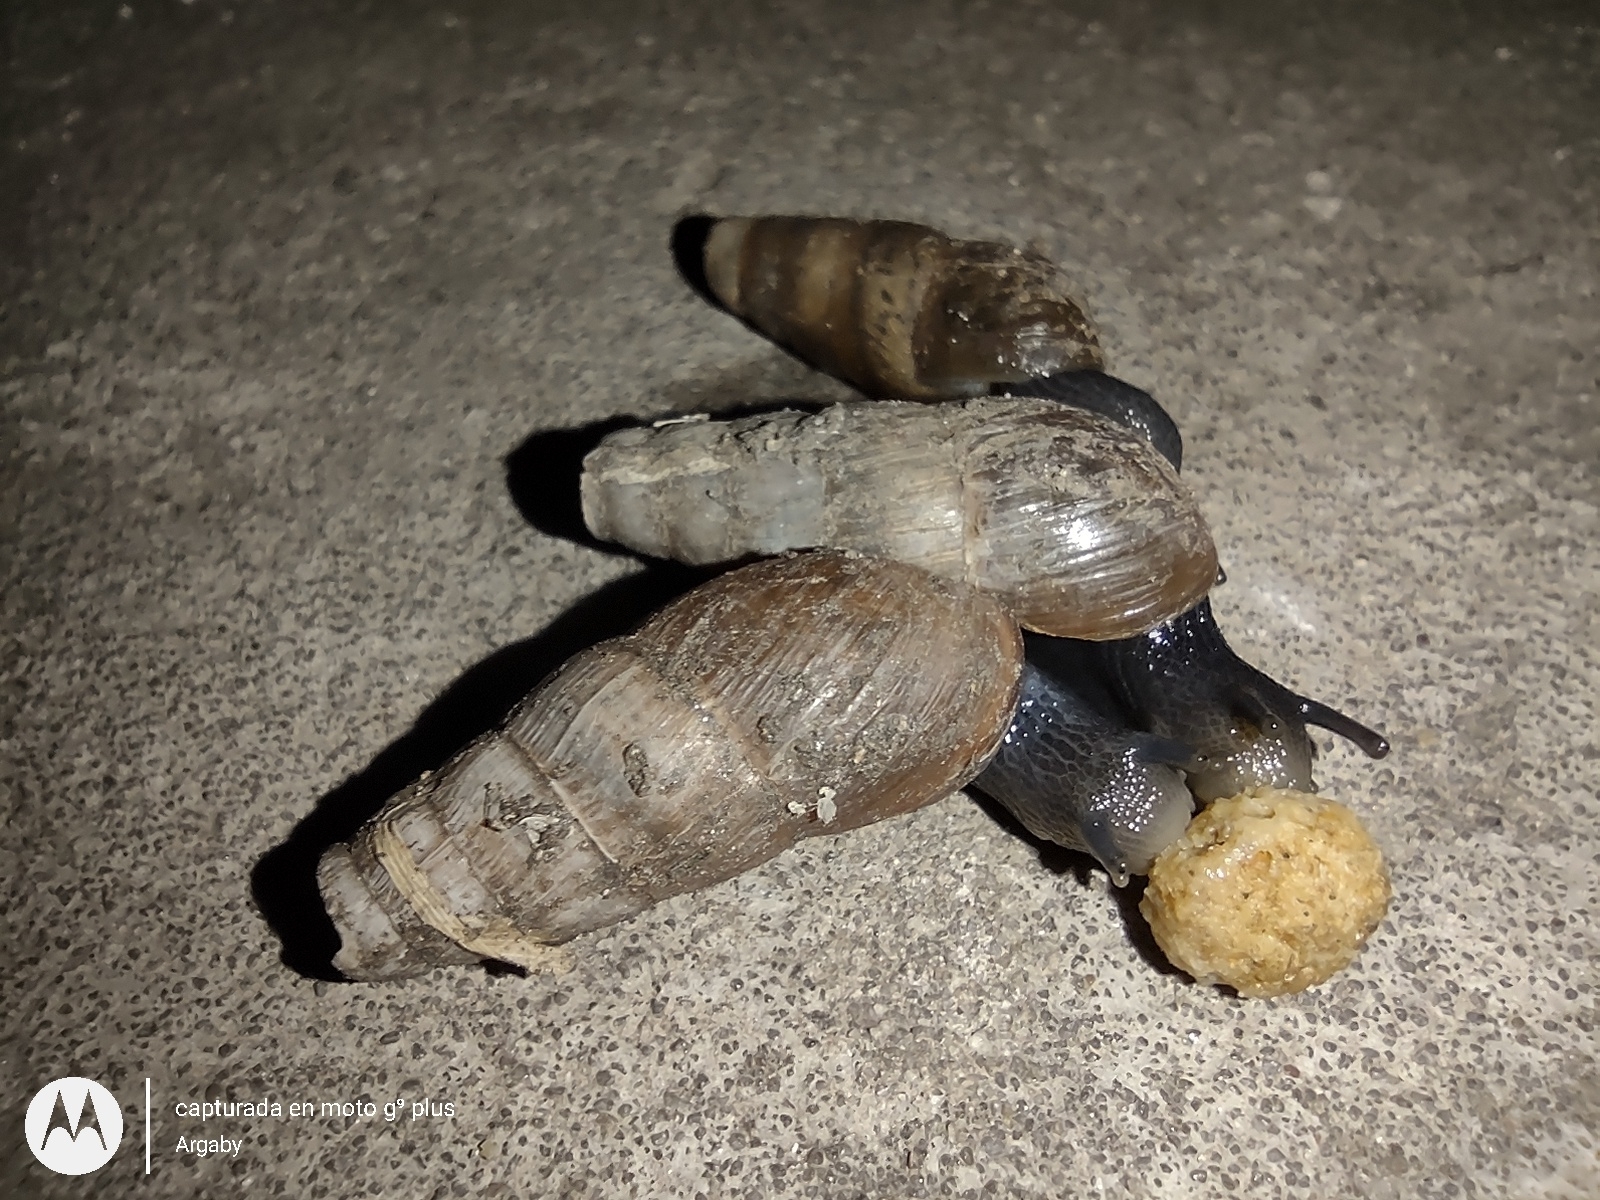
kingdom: Animalia
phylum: Mollusca
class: Gastropoda
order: Stylommatophora
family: Achatinidae
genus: Rumina
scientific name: Rumina decollata
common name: Decollate snail
